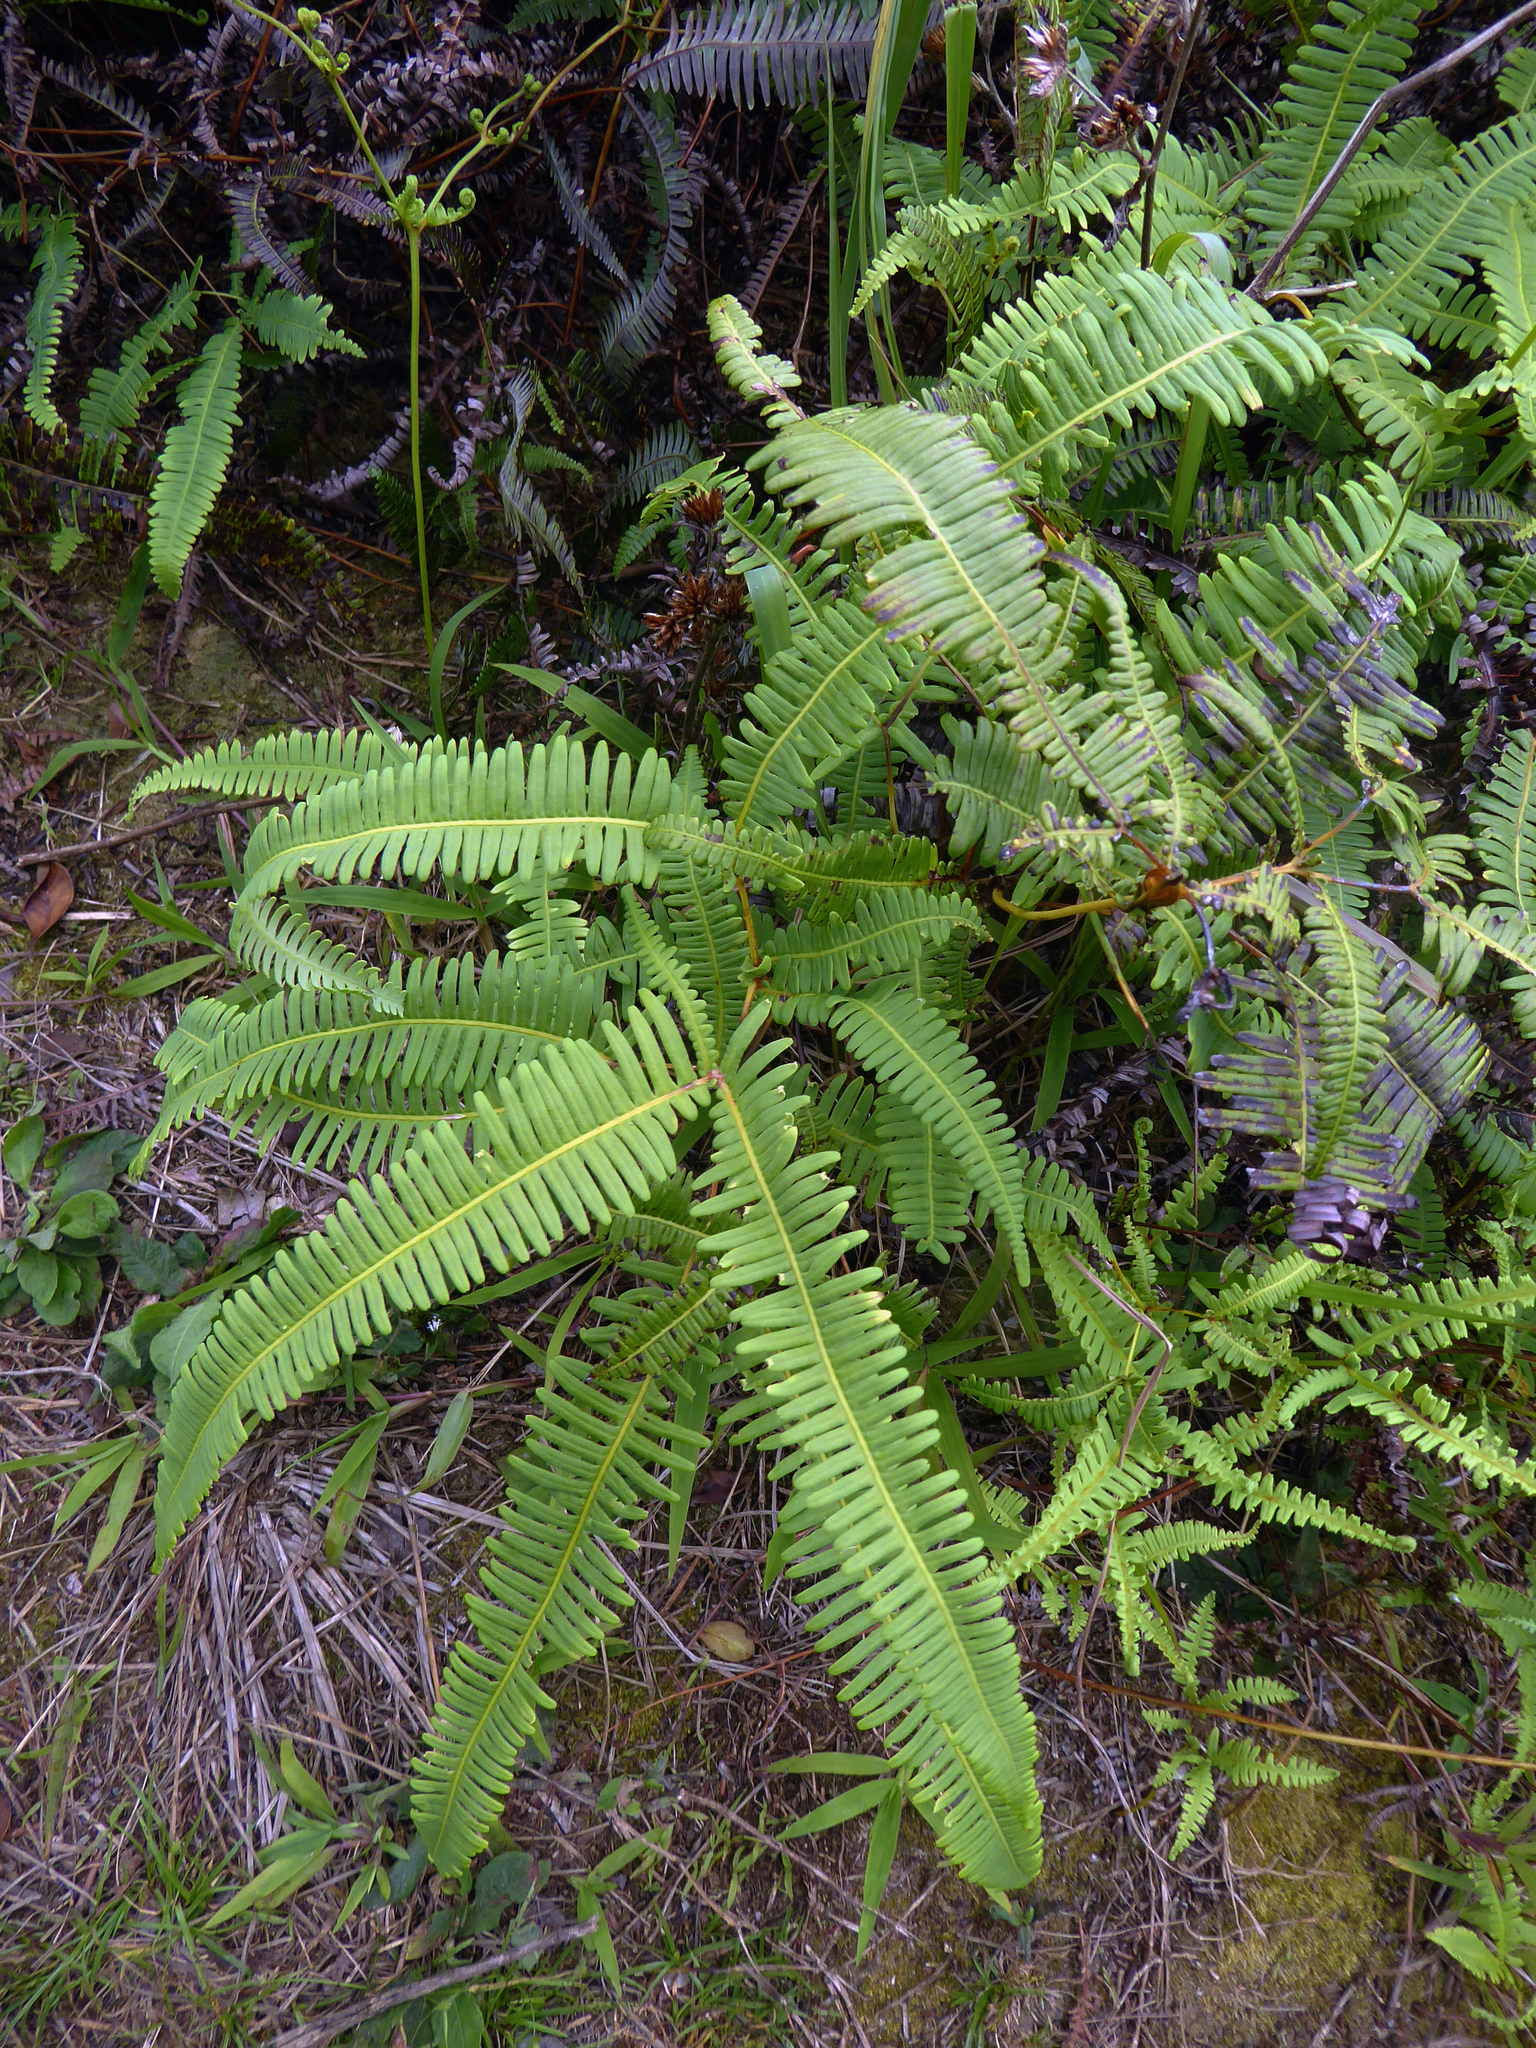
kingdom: Plantae
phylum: Tracheophyta
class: Polypodiopsida
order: Gleicheniales
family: Gleicheniaceae
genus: Dicranopteris
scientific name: Dicranopteris linearis
